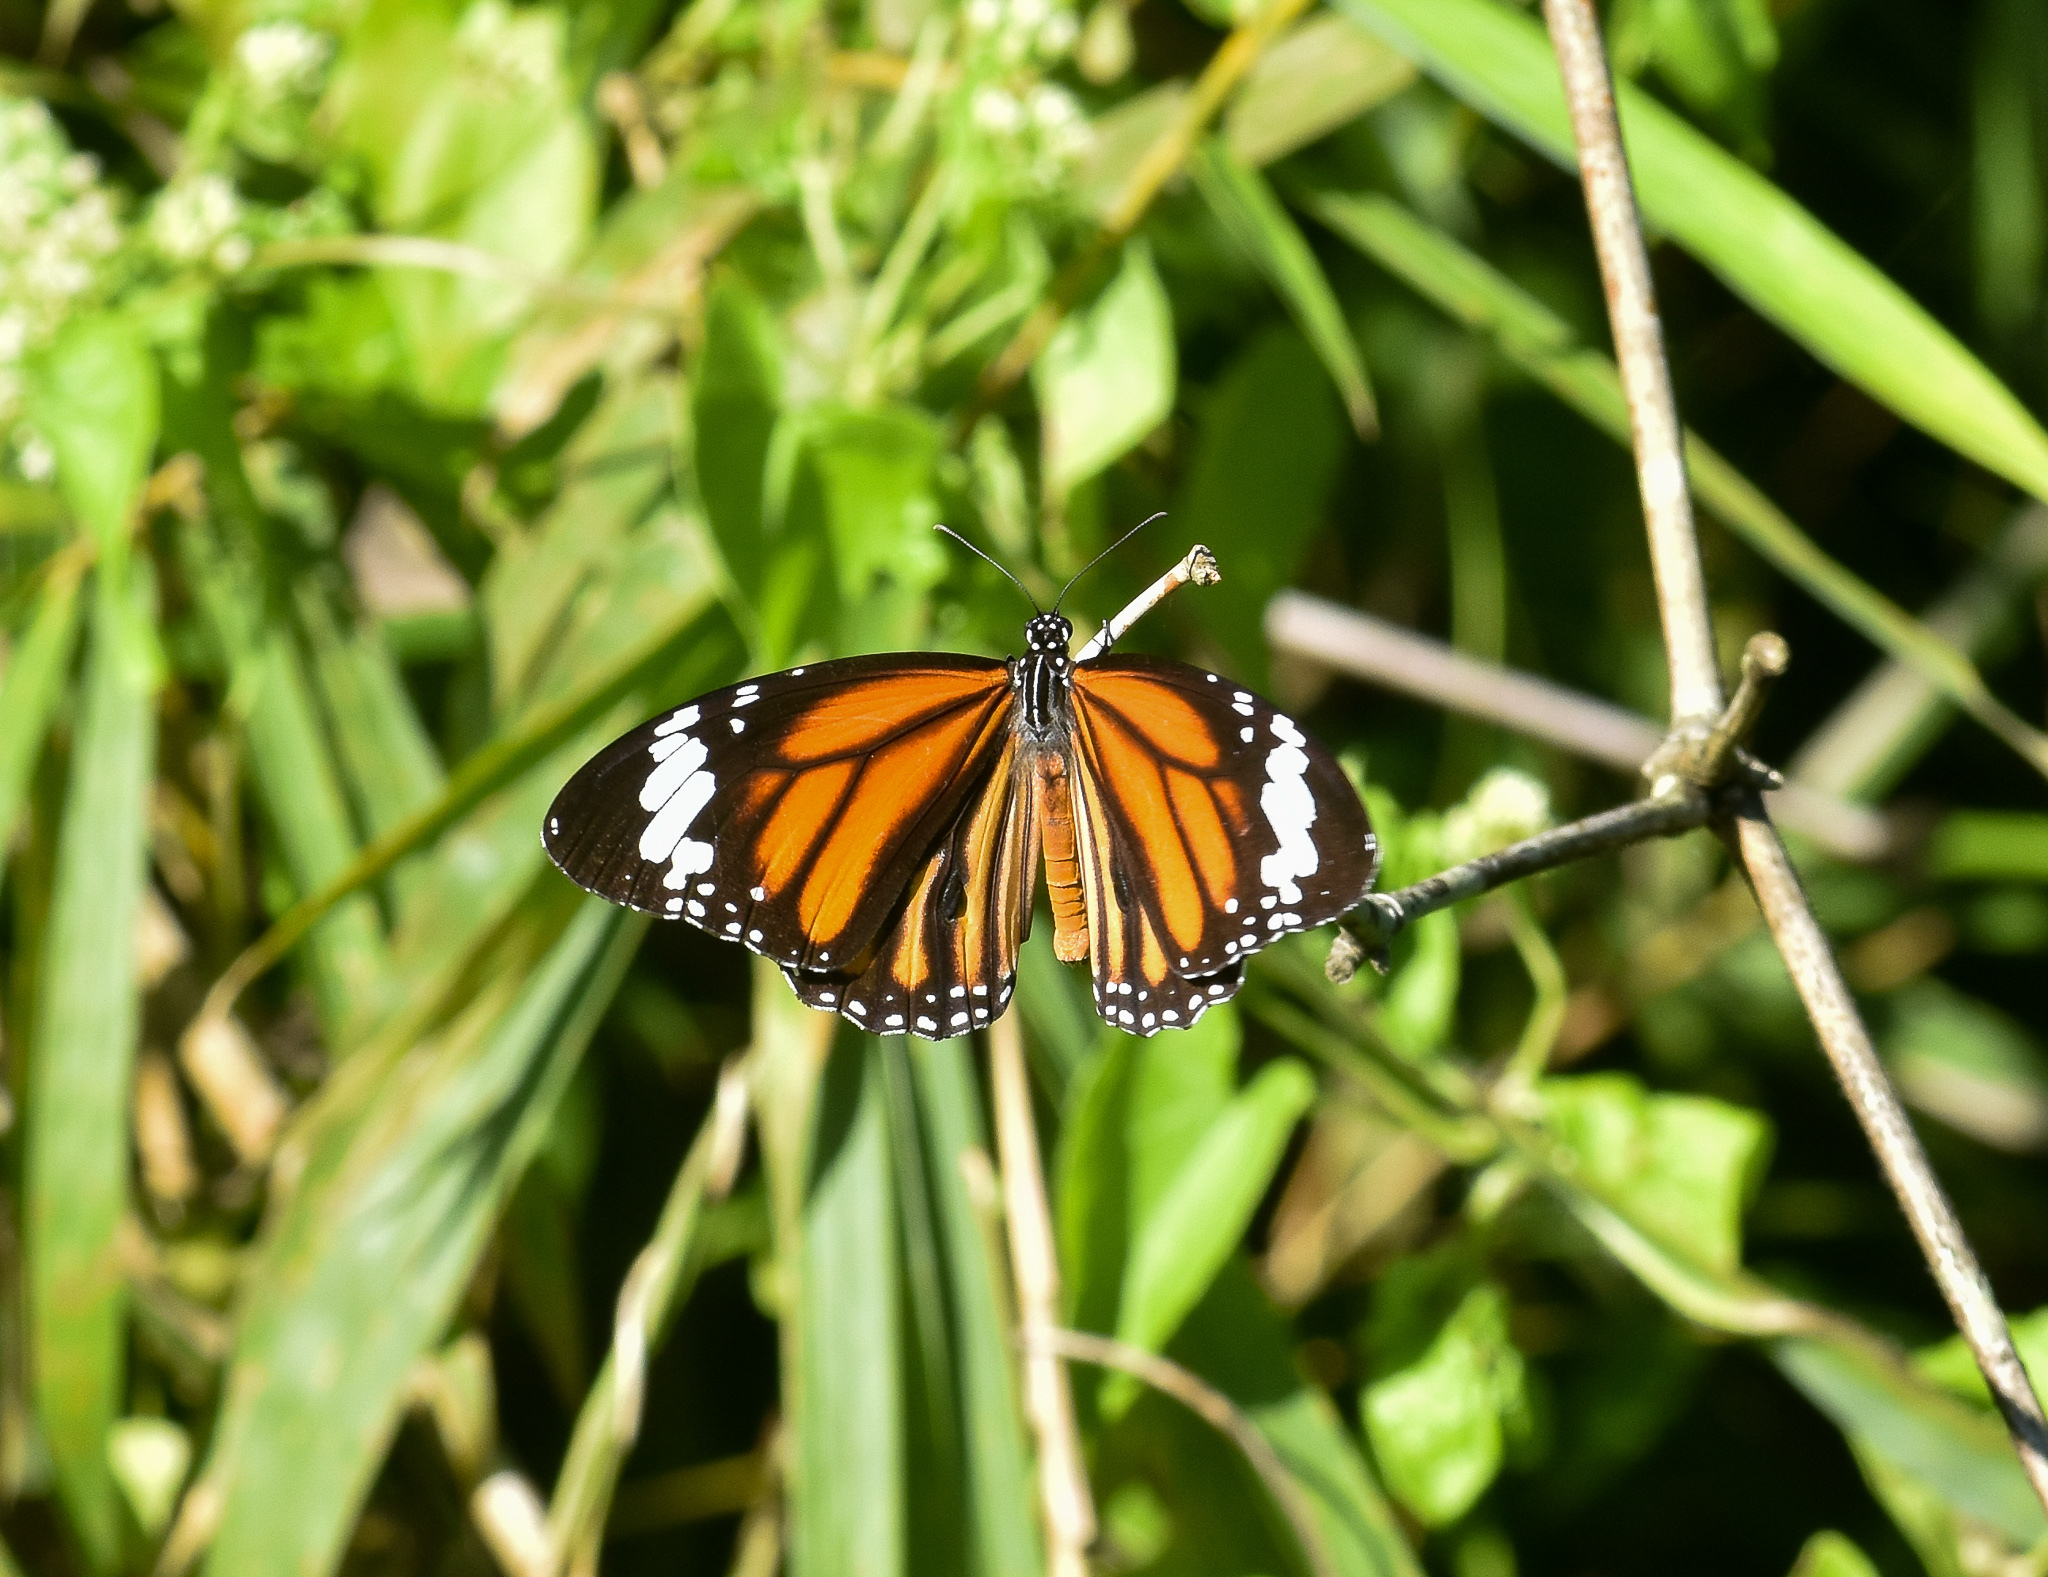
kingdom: Animalia
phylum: Arthropoda
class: Insecta
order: Lepidoptera
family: Nymphalidae
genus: Danaus
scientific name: Danaus genutia
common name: Common tiger butterfly
